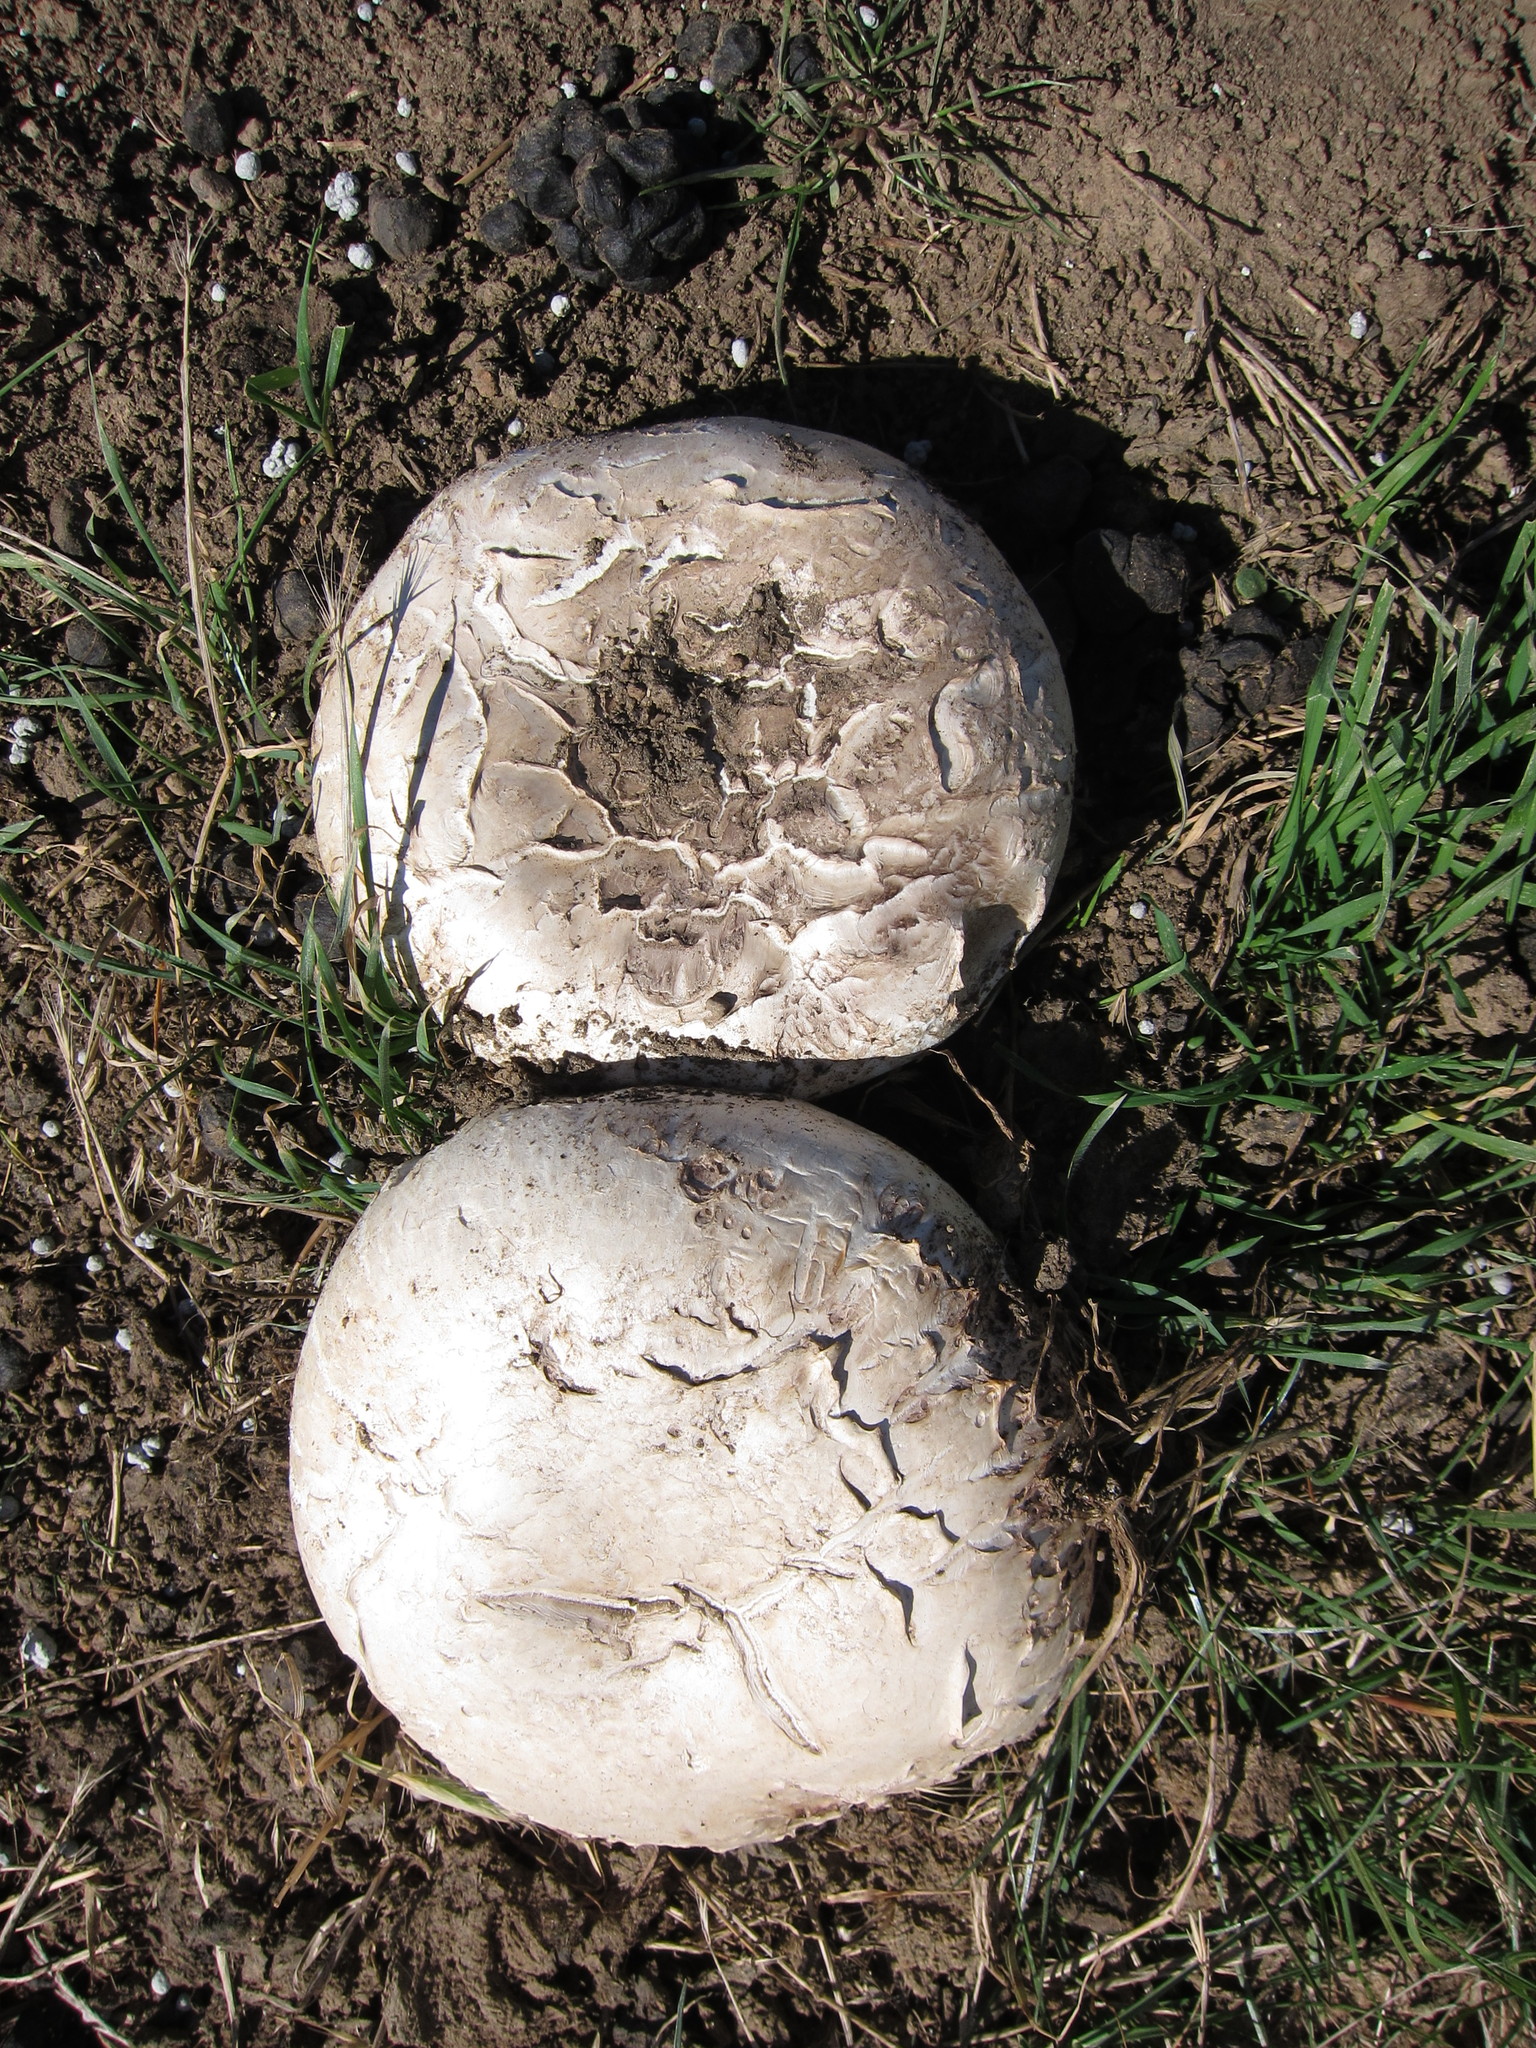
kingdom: Fungi
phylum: Basidiomycota
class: Agaricomycetes
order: Agaricales
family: Agaricaceae
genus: Agaricus
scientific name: Agaricus bernardii
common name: Salty mushroom
